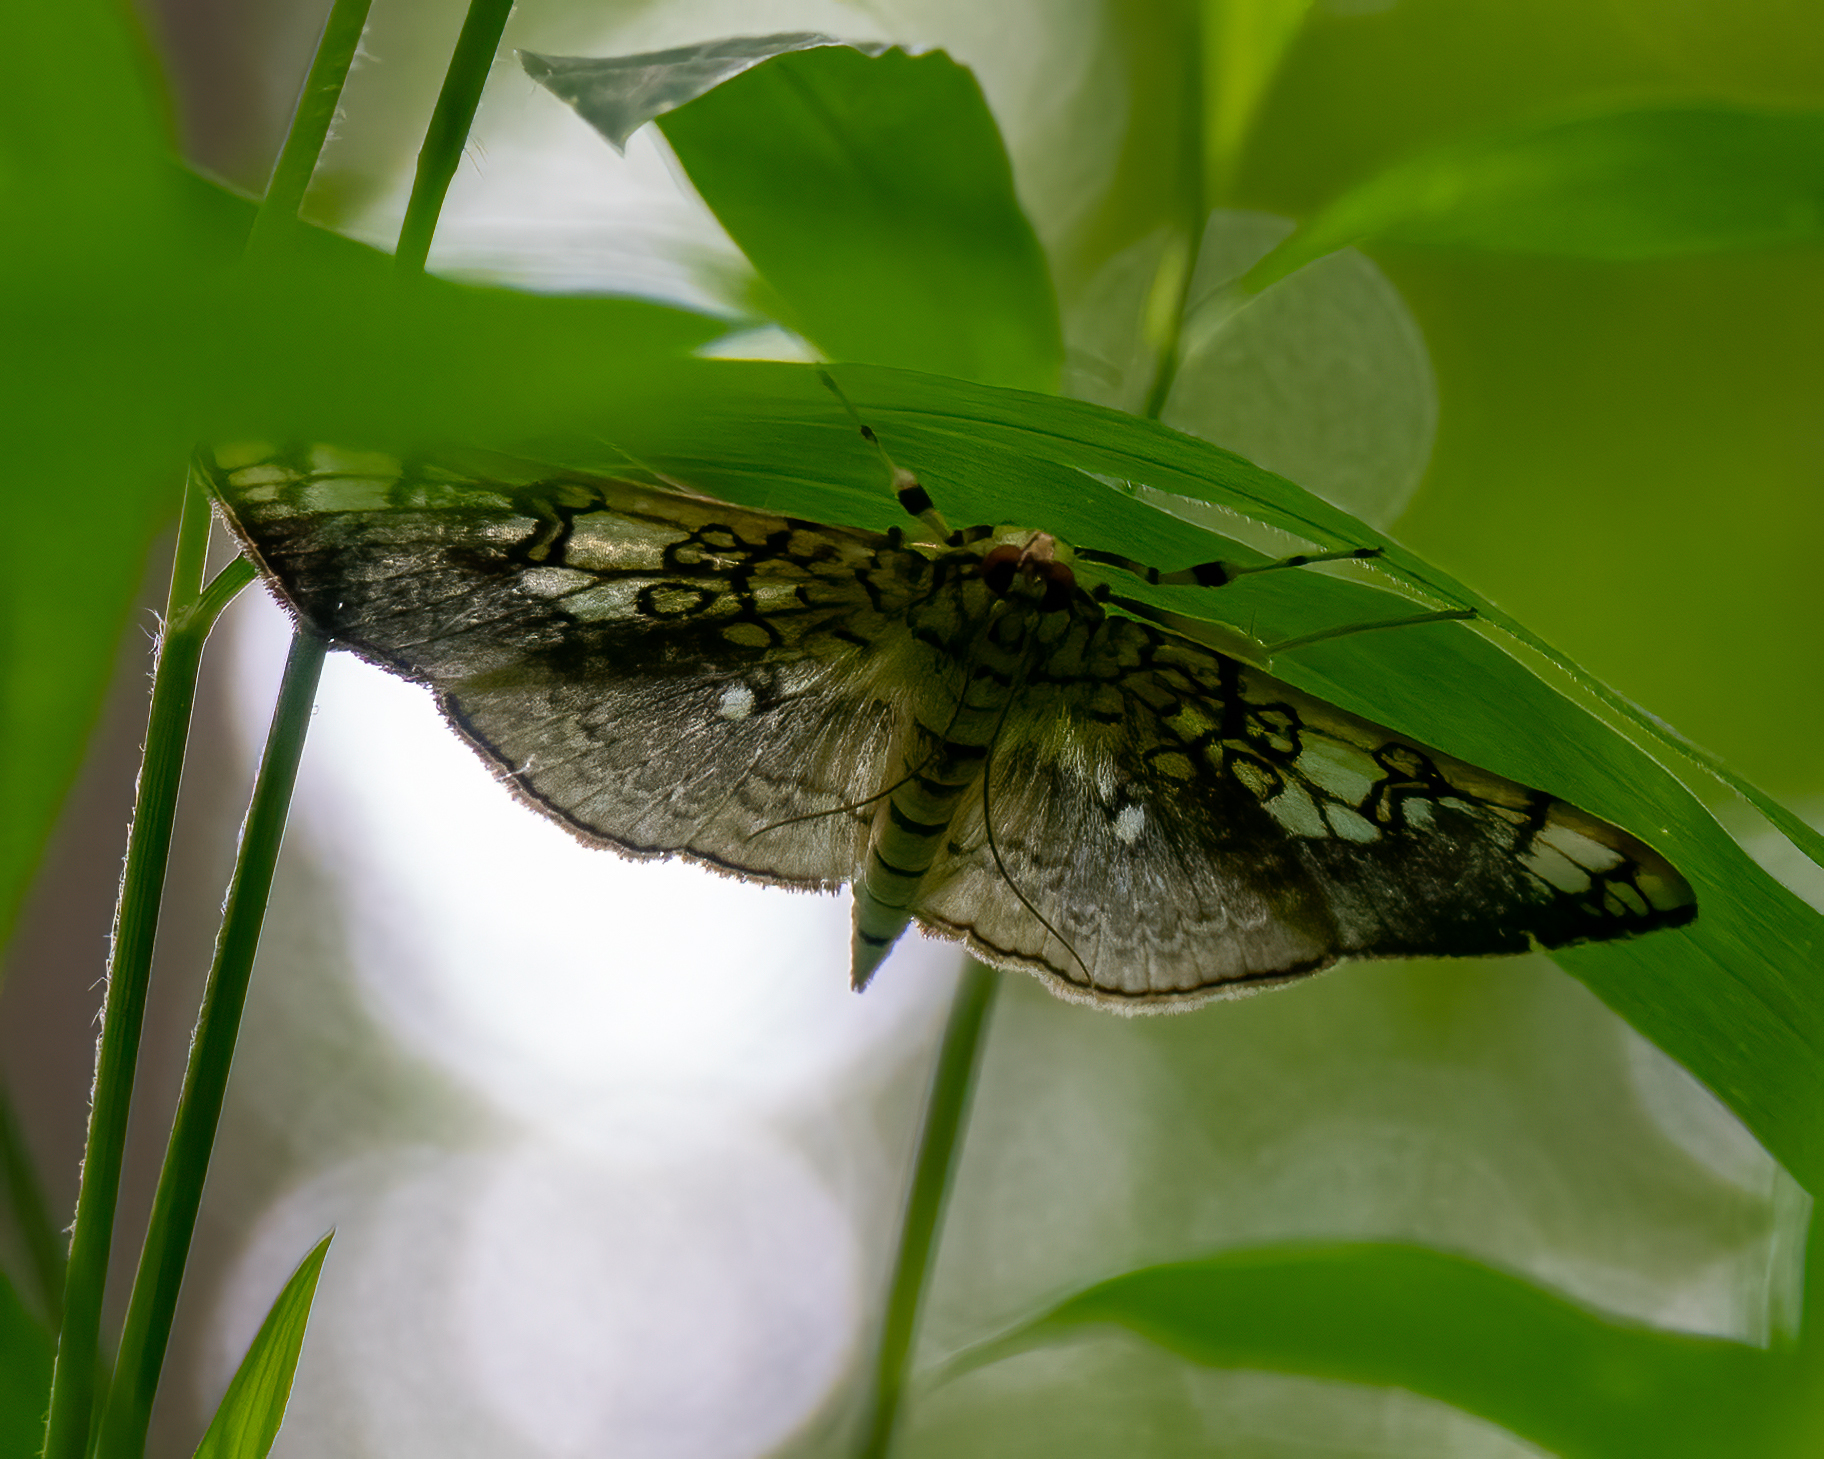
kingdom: Animalia
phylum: Arthropoda
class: Insecta
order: Lepidoptera
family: Crambidae
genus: Pantographa
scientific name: Pantographa limata
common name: Basswood leafroller moth
